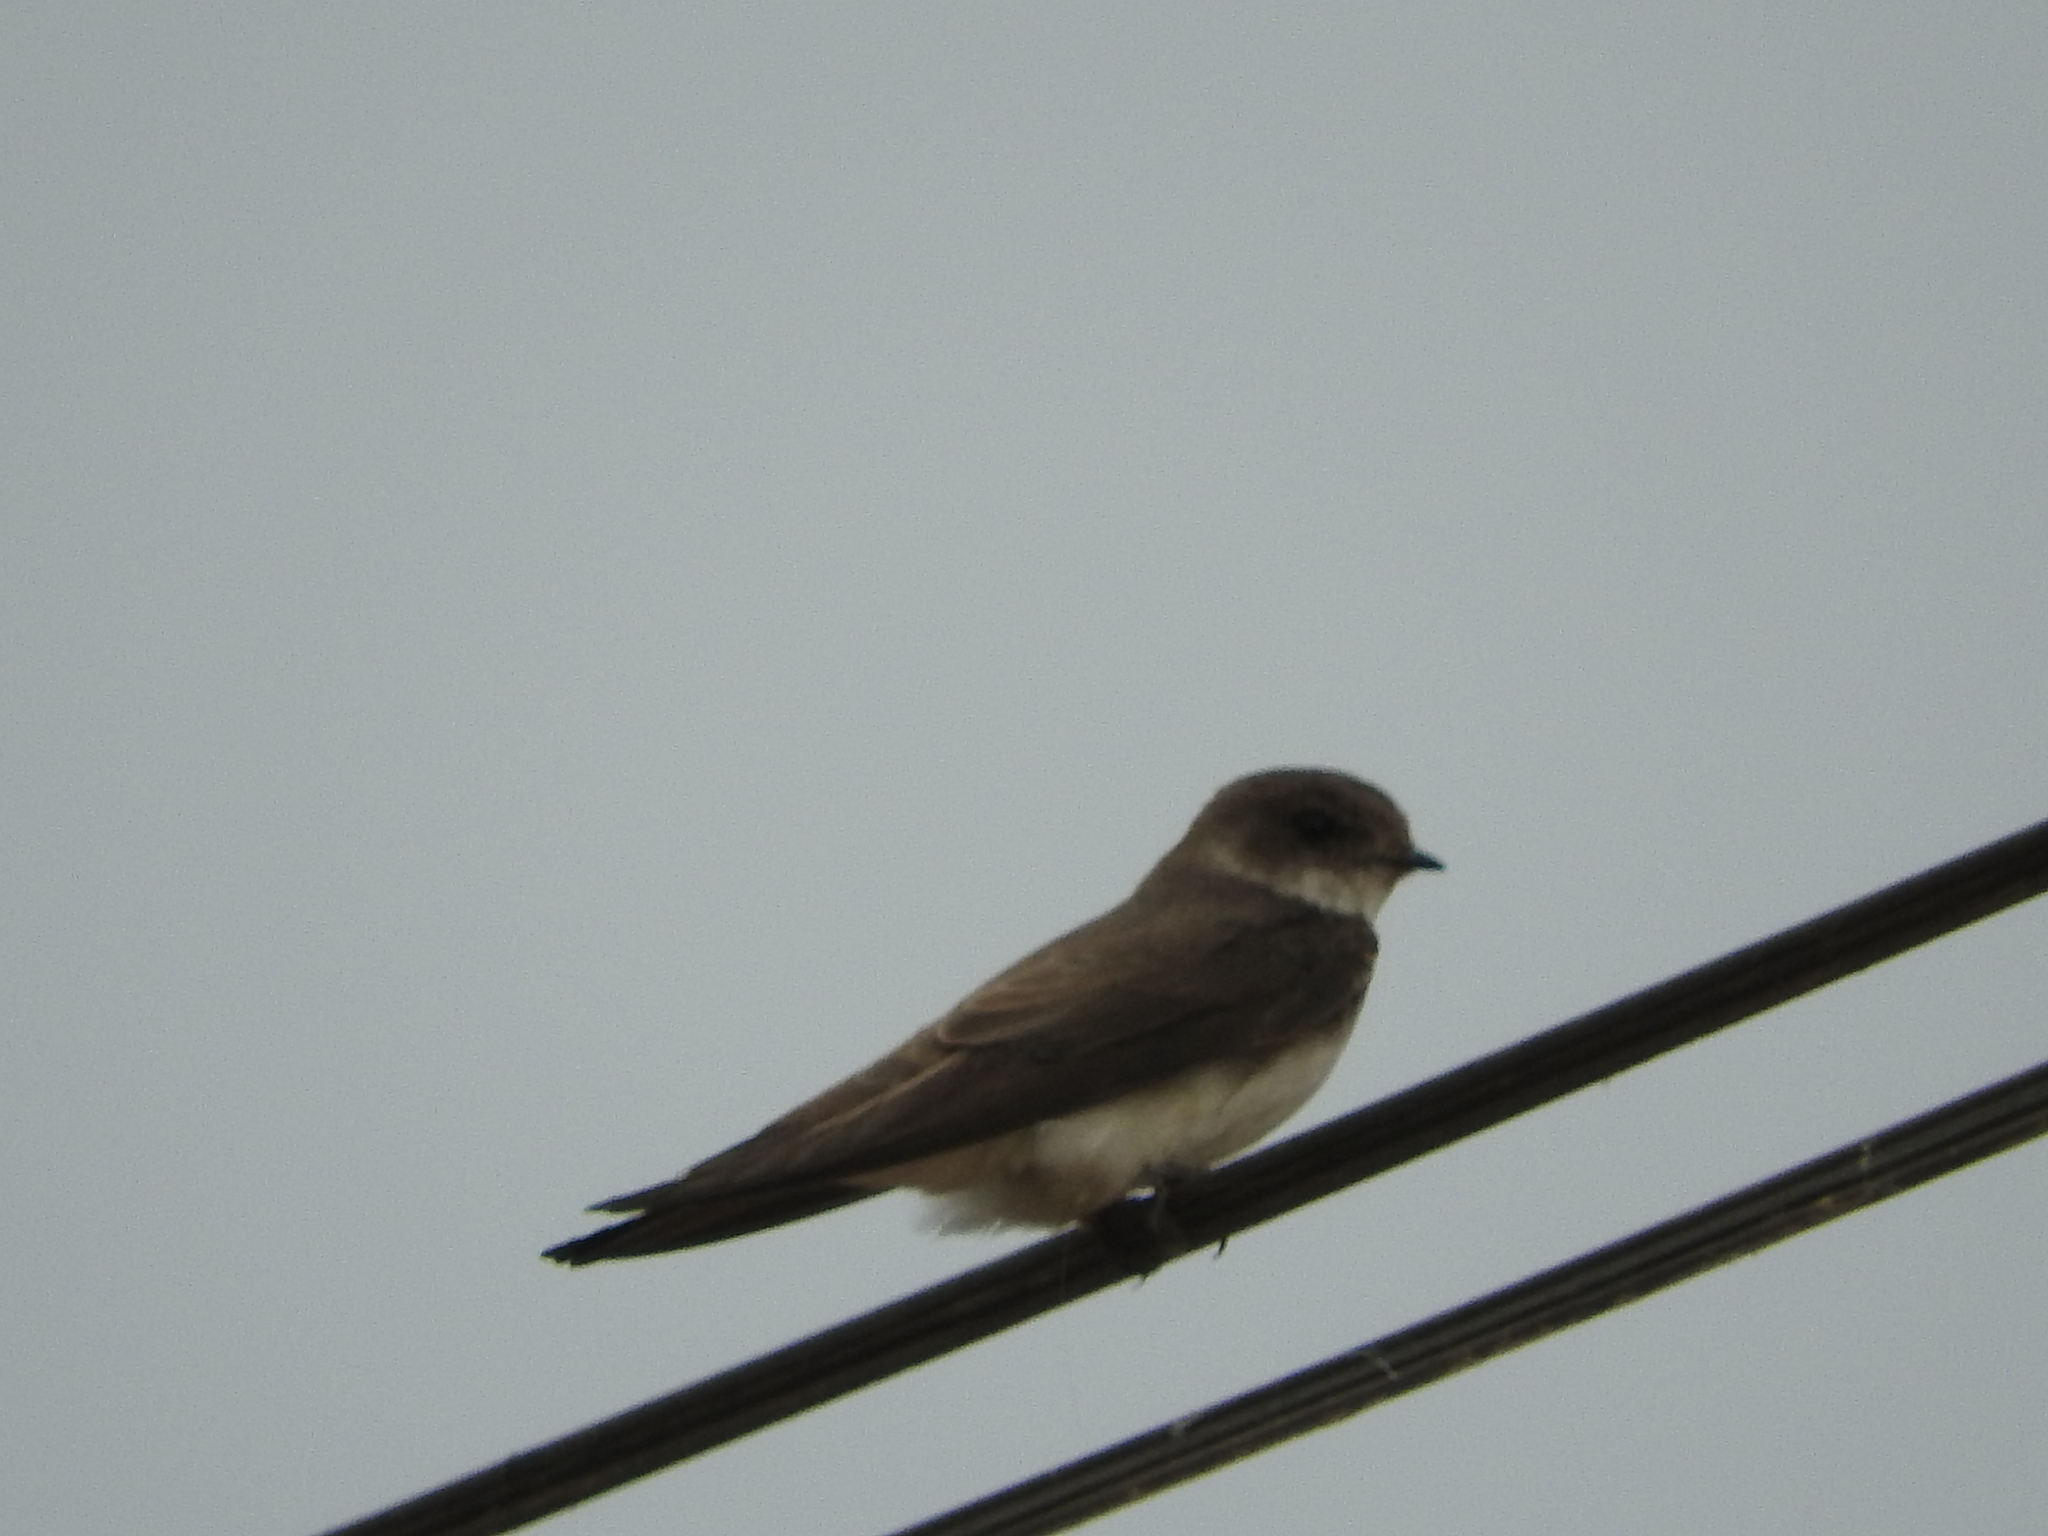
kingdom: Animalia
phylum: Chordata
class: Aves
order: Passeriformes
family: Hirundinidae
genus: Riparia
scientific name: Riparia riparia
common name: Sand martin
